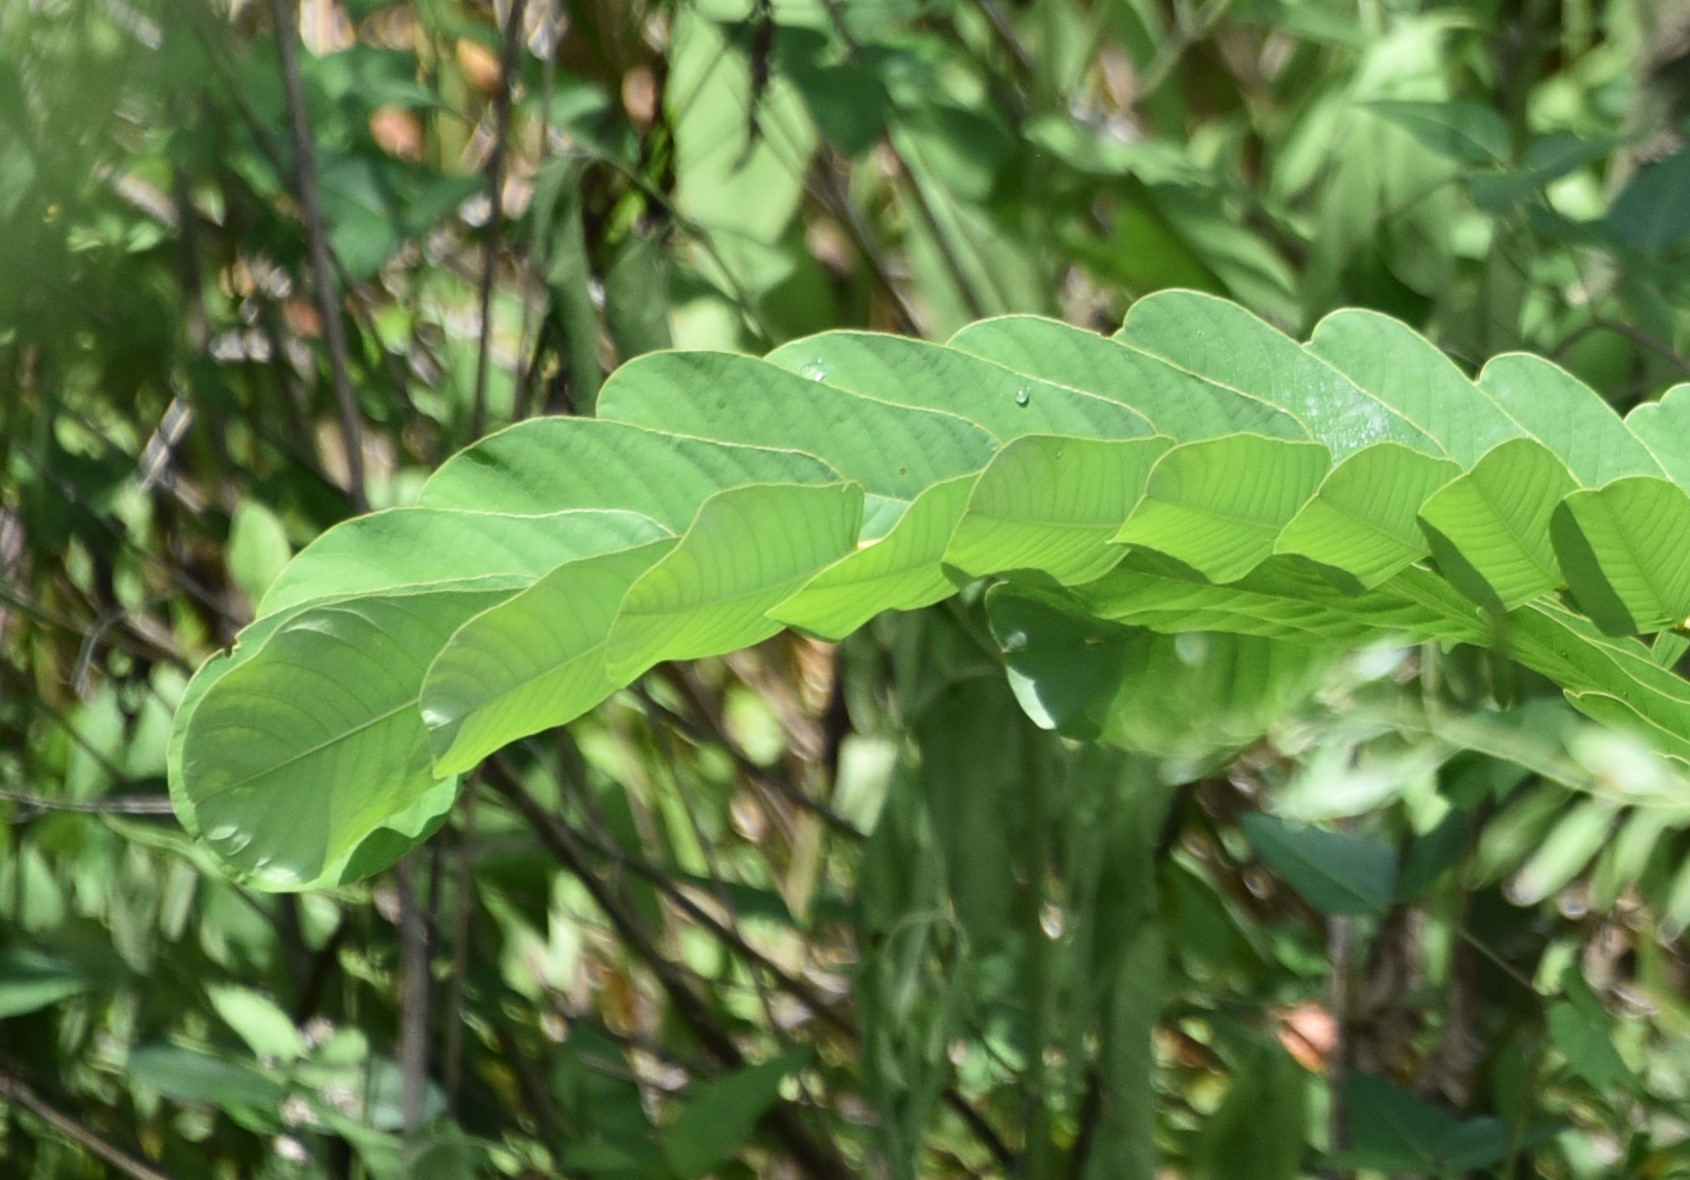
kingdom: Plantae
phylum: Tracheophyta
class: Magnoliopsida
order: Fabales
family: Fabaceae
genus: Senna
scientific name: Senna alata
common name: Emperor's candlesticks
